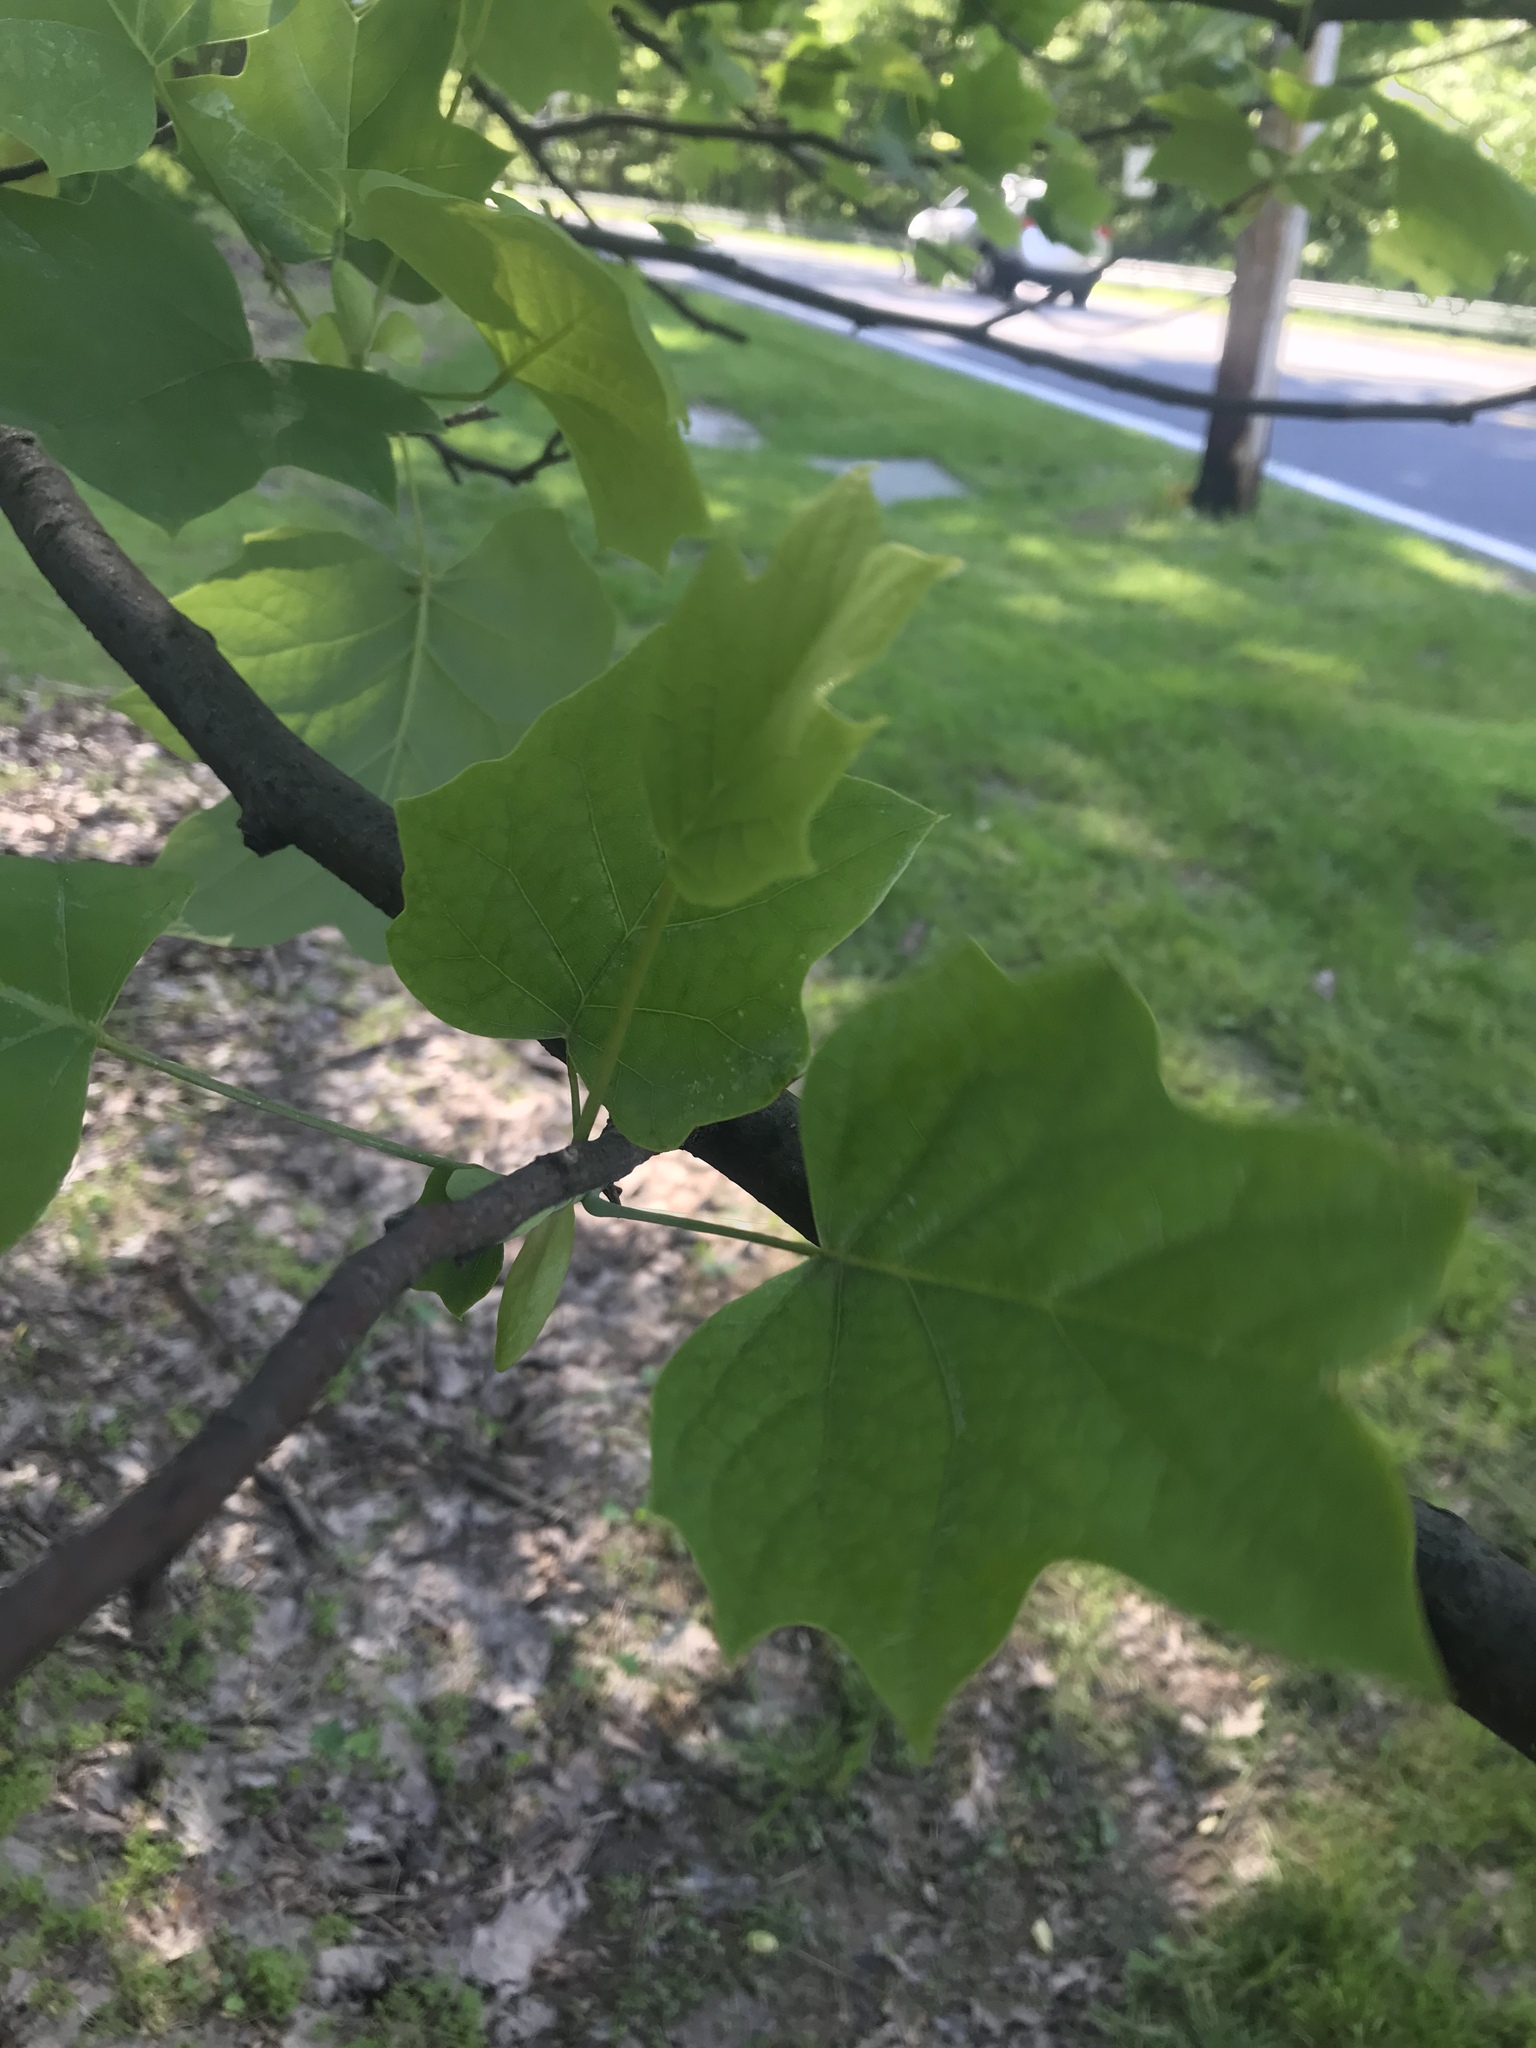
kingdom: Plantae
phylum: Tracheophyta
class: Magnoliopsida
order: Magnoliales
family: Magnoliaceae
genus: Liriodendron
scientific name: Liriodendron tulipifera
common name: Tulip tree
